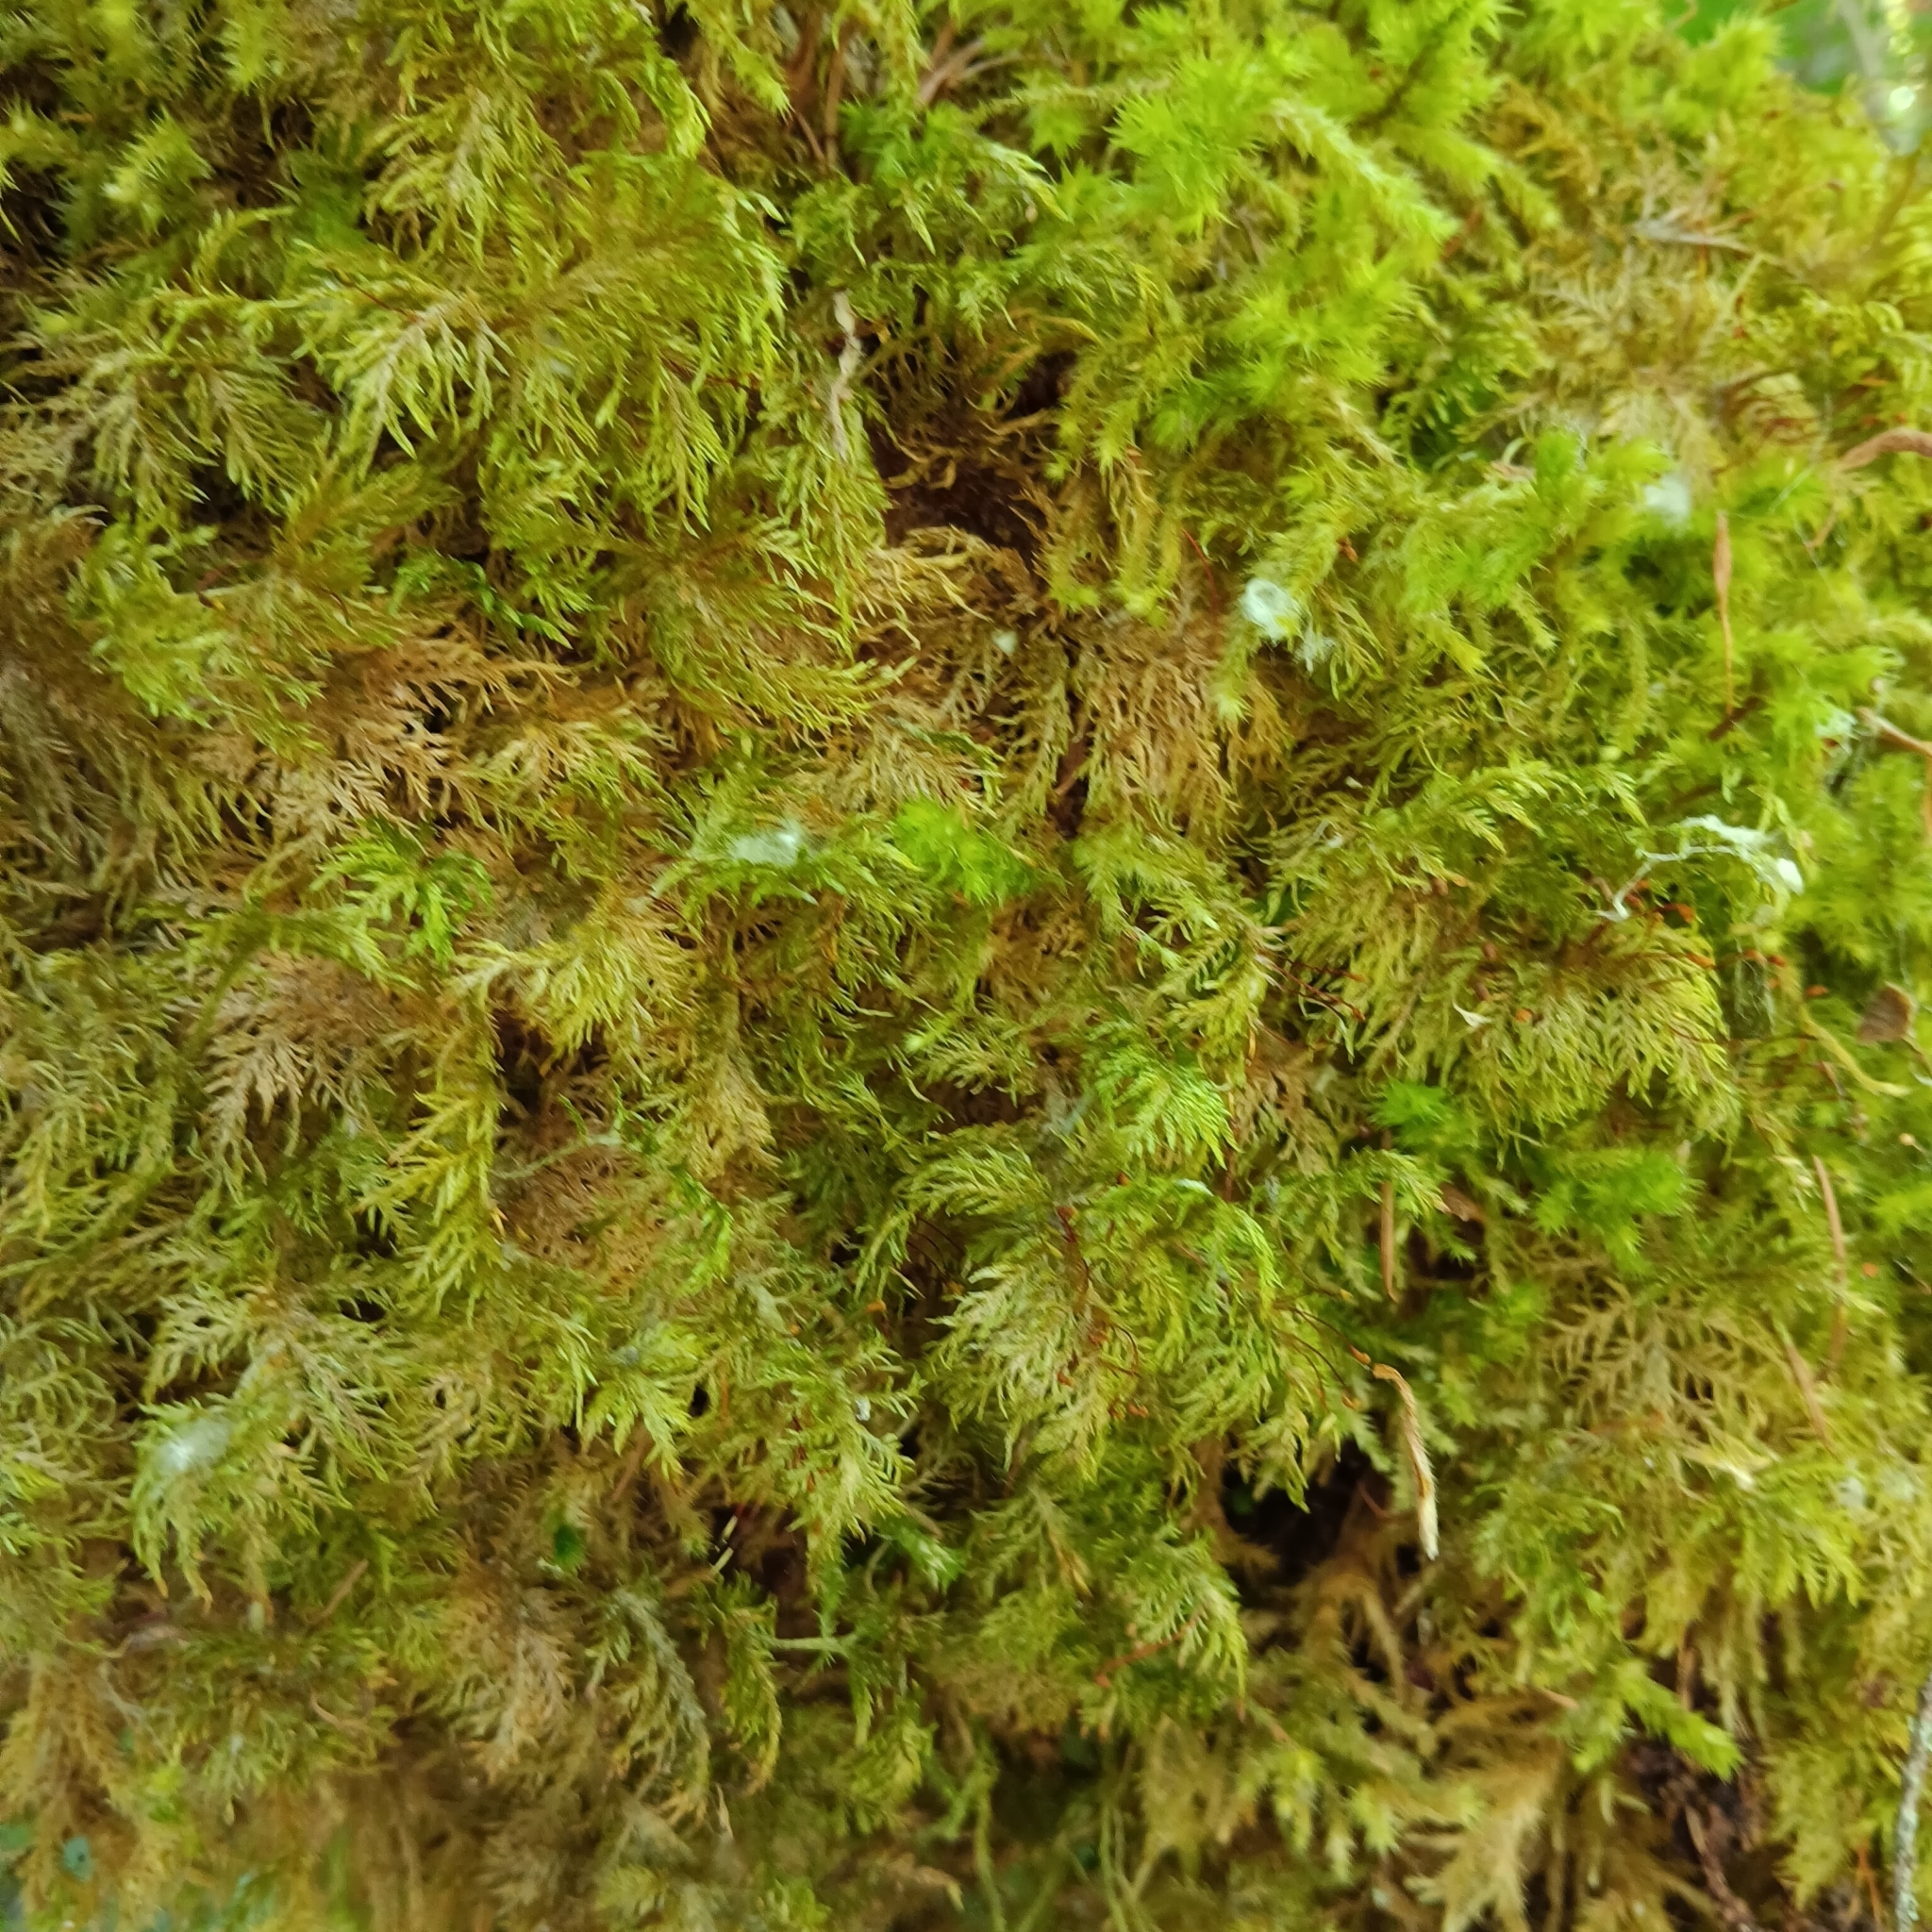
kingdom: Plantae
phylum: Bryophyta
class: Bryopsida
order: Hypnales
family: Hylocomiaceae
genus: Hylocomium
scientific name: Hylocomium splendens
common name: Stairstep moss
